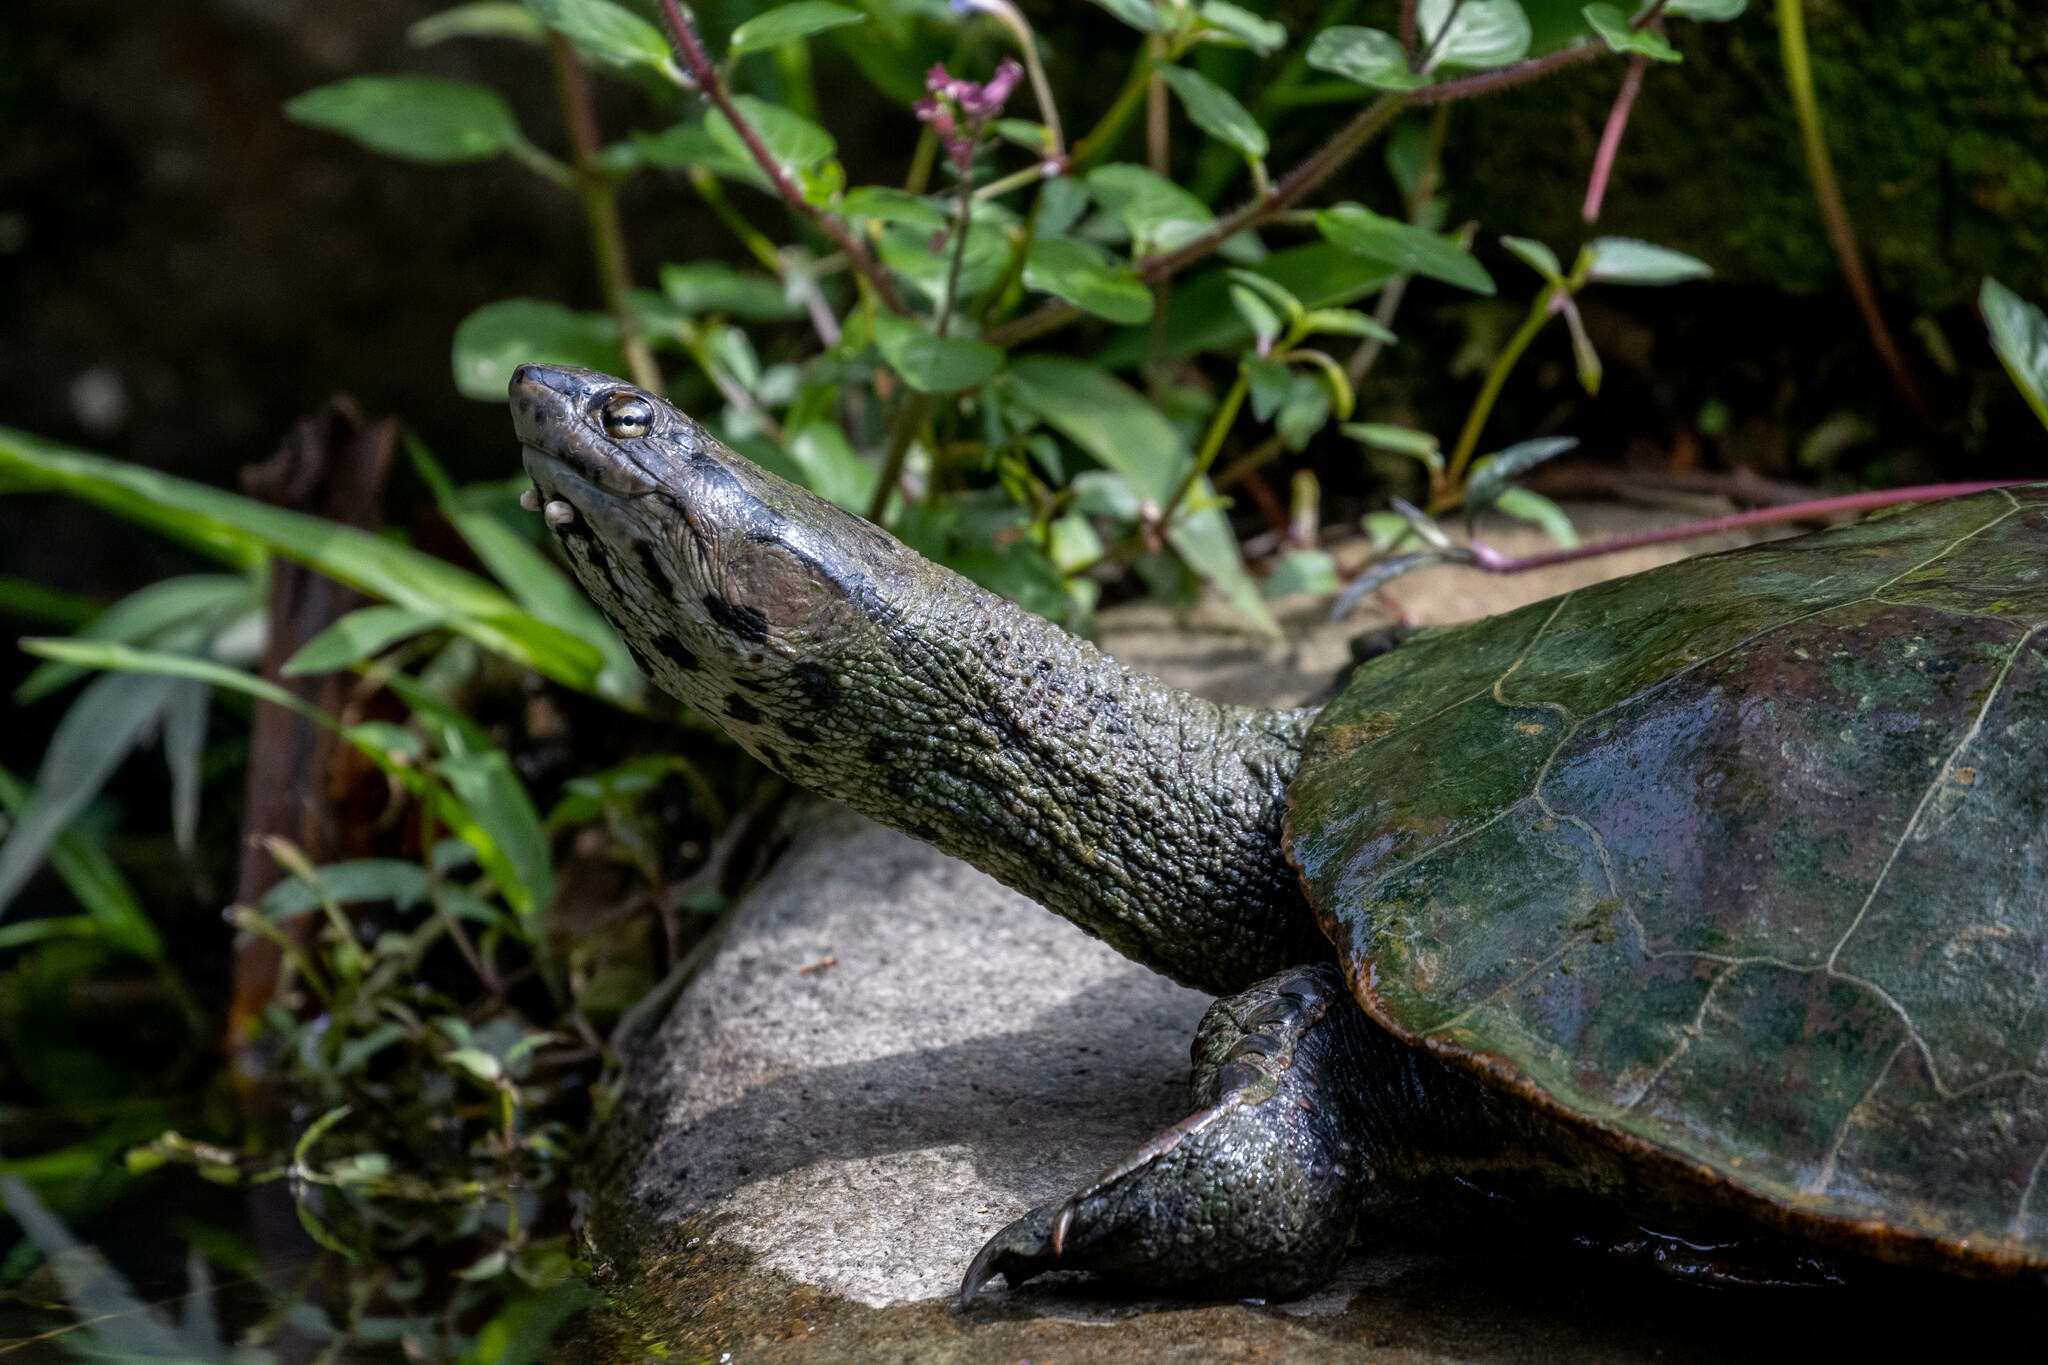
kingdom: Animalia
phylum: Chordata
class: Testudines
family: Chelidae
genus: Phrynops
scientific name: Phrynops geoffroanus
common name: Side-necked turtle of geoffroy
